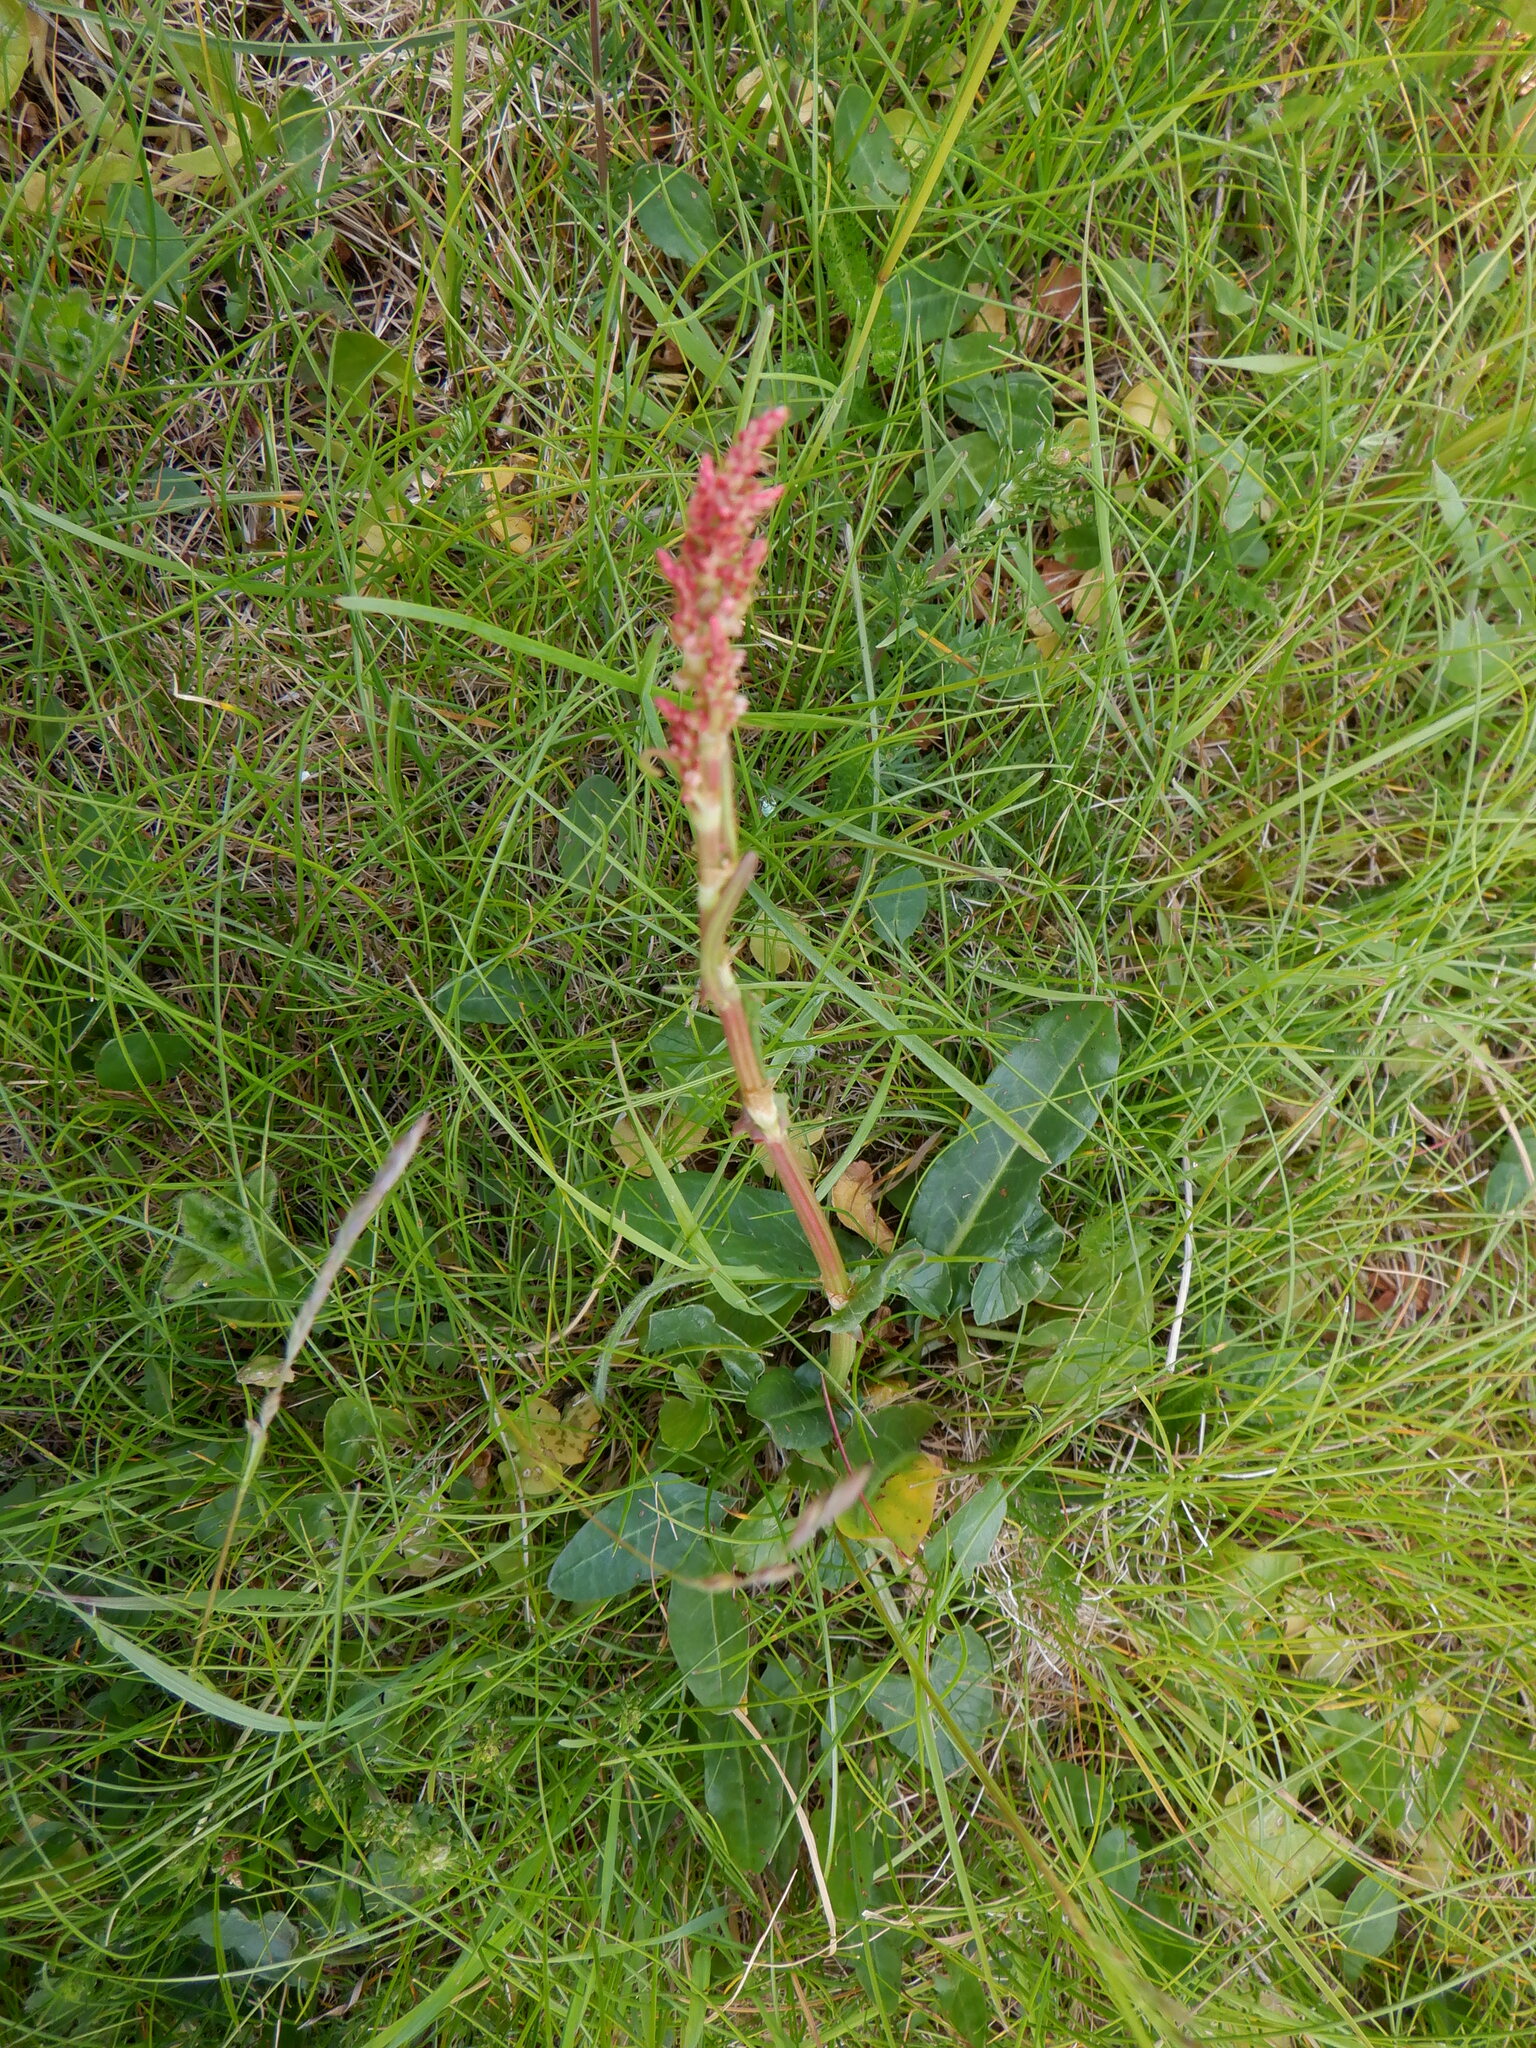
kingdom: Plantae
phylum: Tracheophyta
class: Magnoliopsida
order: Caryophyllales
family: Polygonaceae
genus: Rumex
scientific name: Rumex acetosa
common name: Garden sorrel
